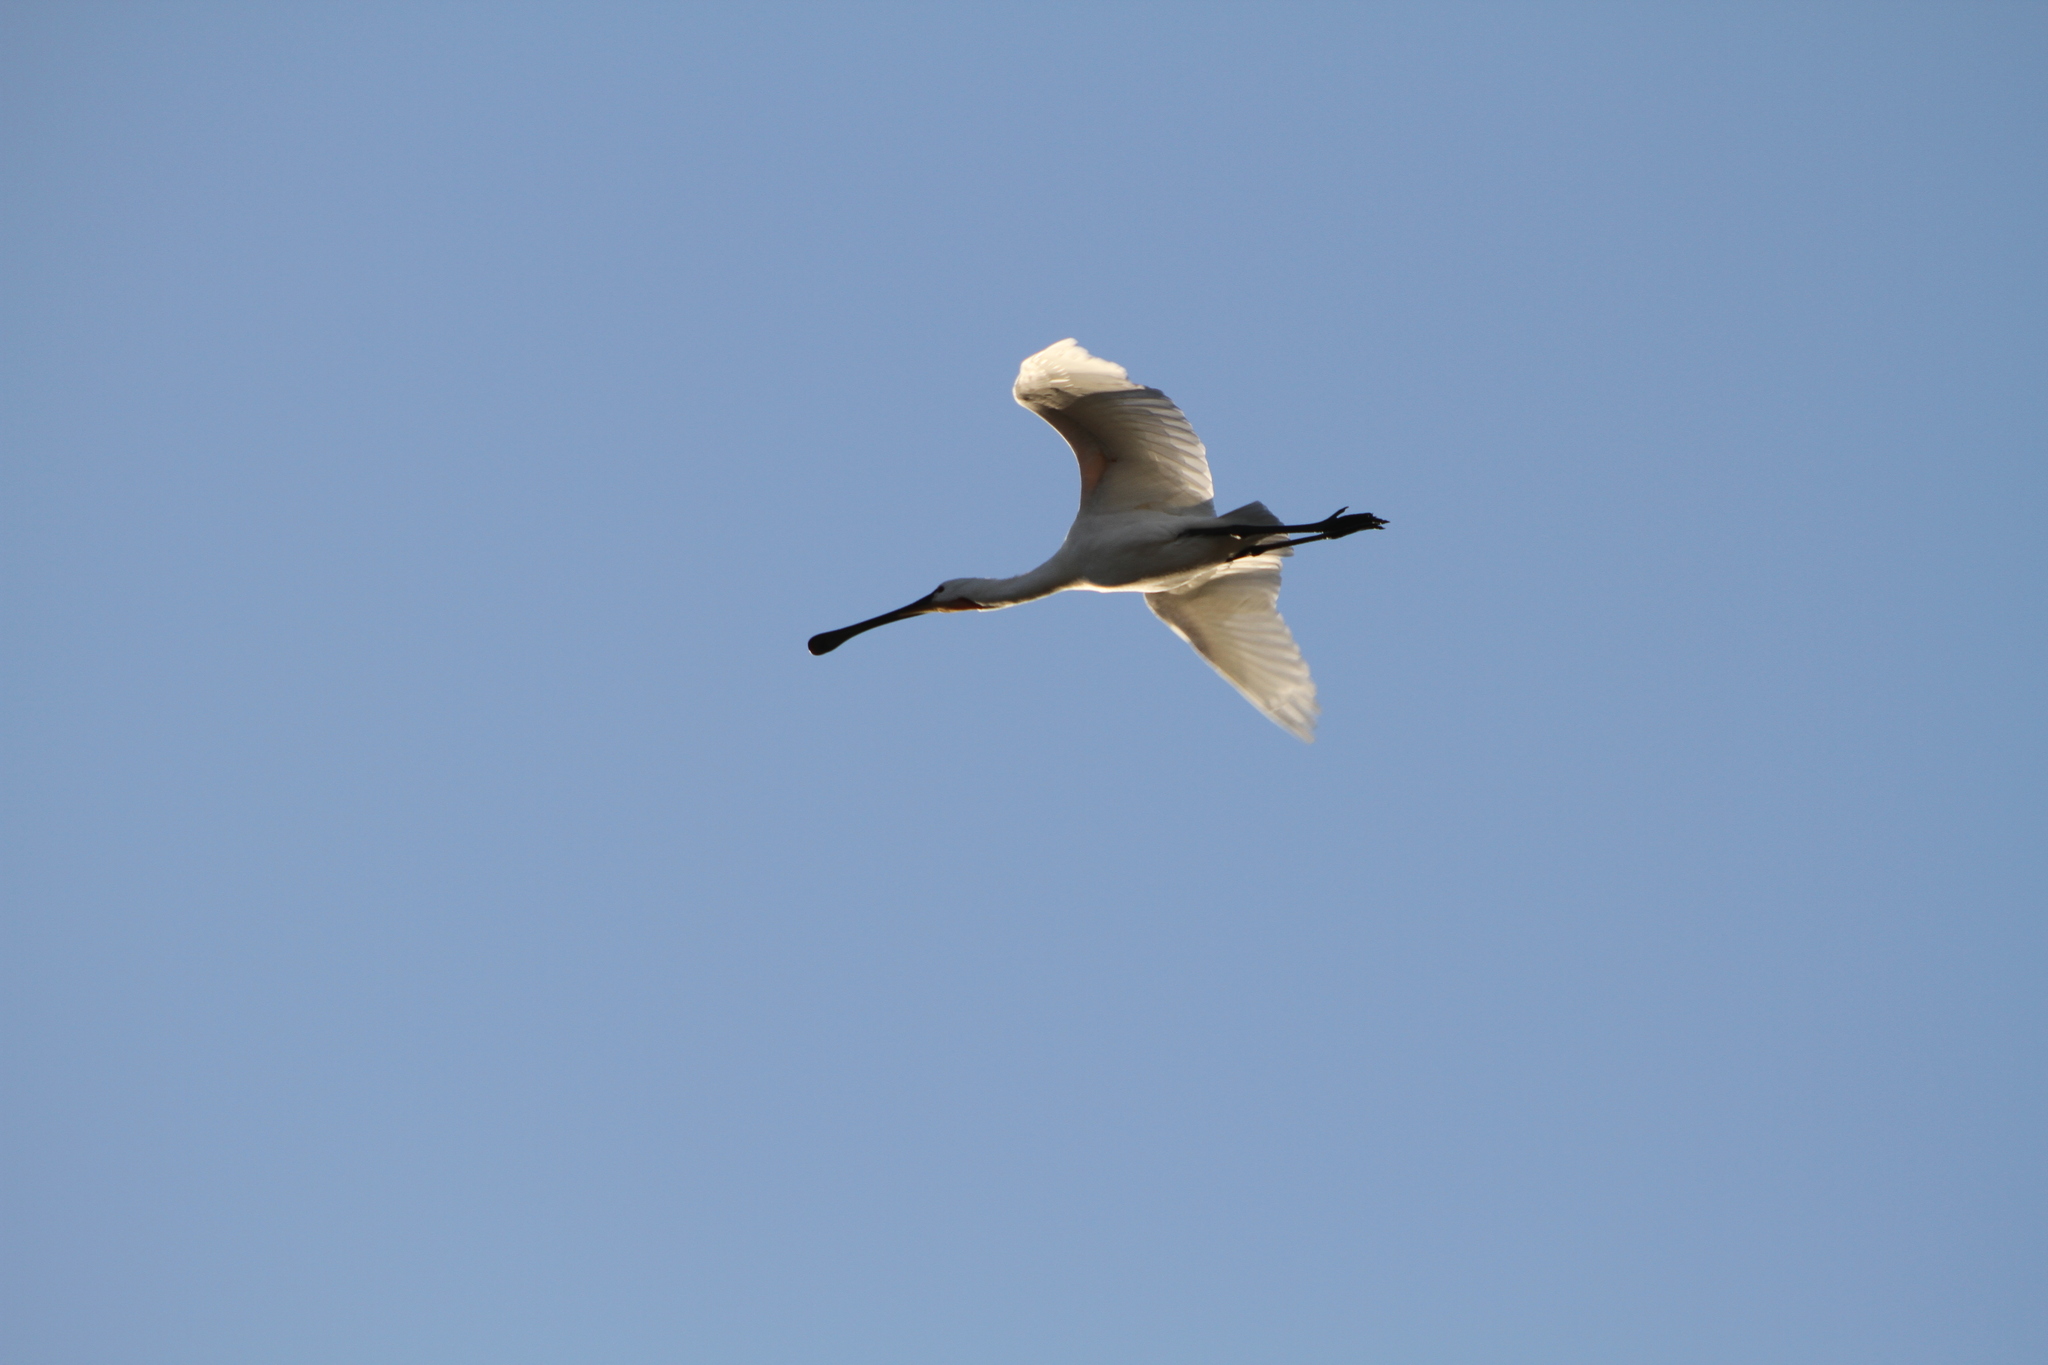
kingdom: Animalia
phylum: Chordata
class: Aves
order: Pelecaniformes
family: Threskiornithidae
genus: Platalea
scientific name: Platalea leucorodia
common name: Eurasian spoonbill
